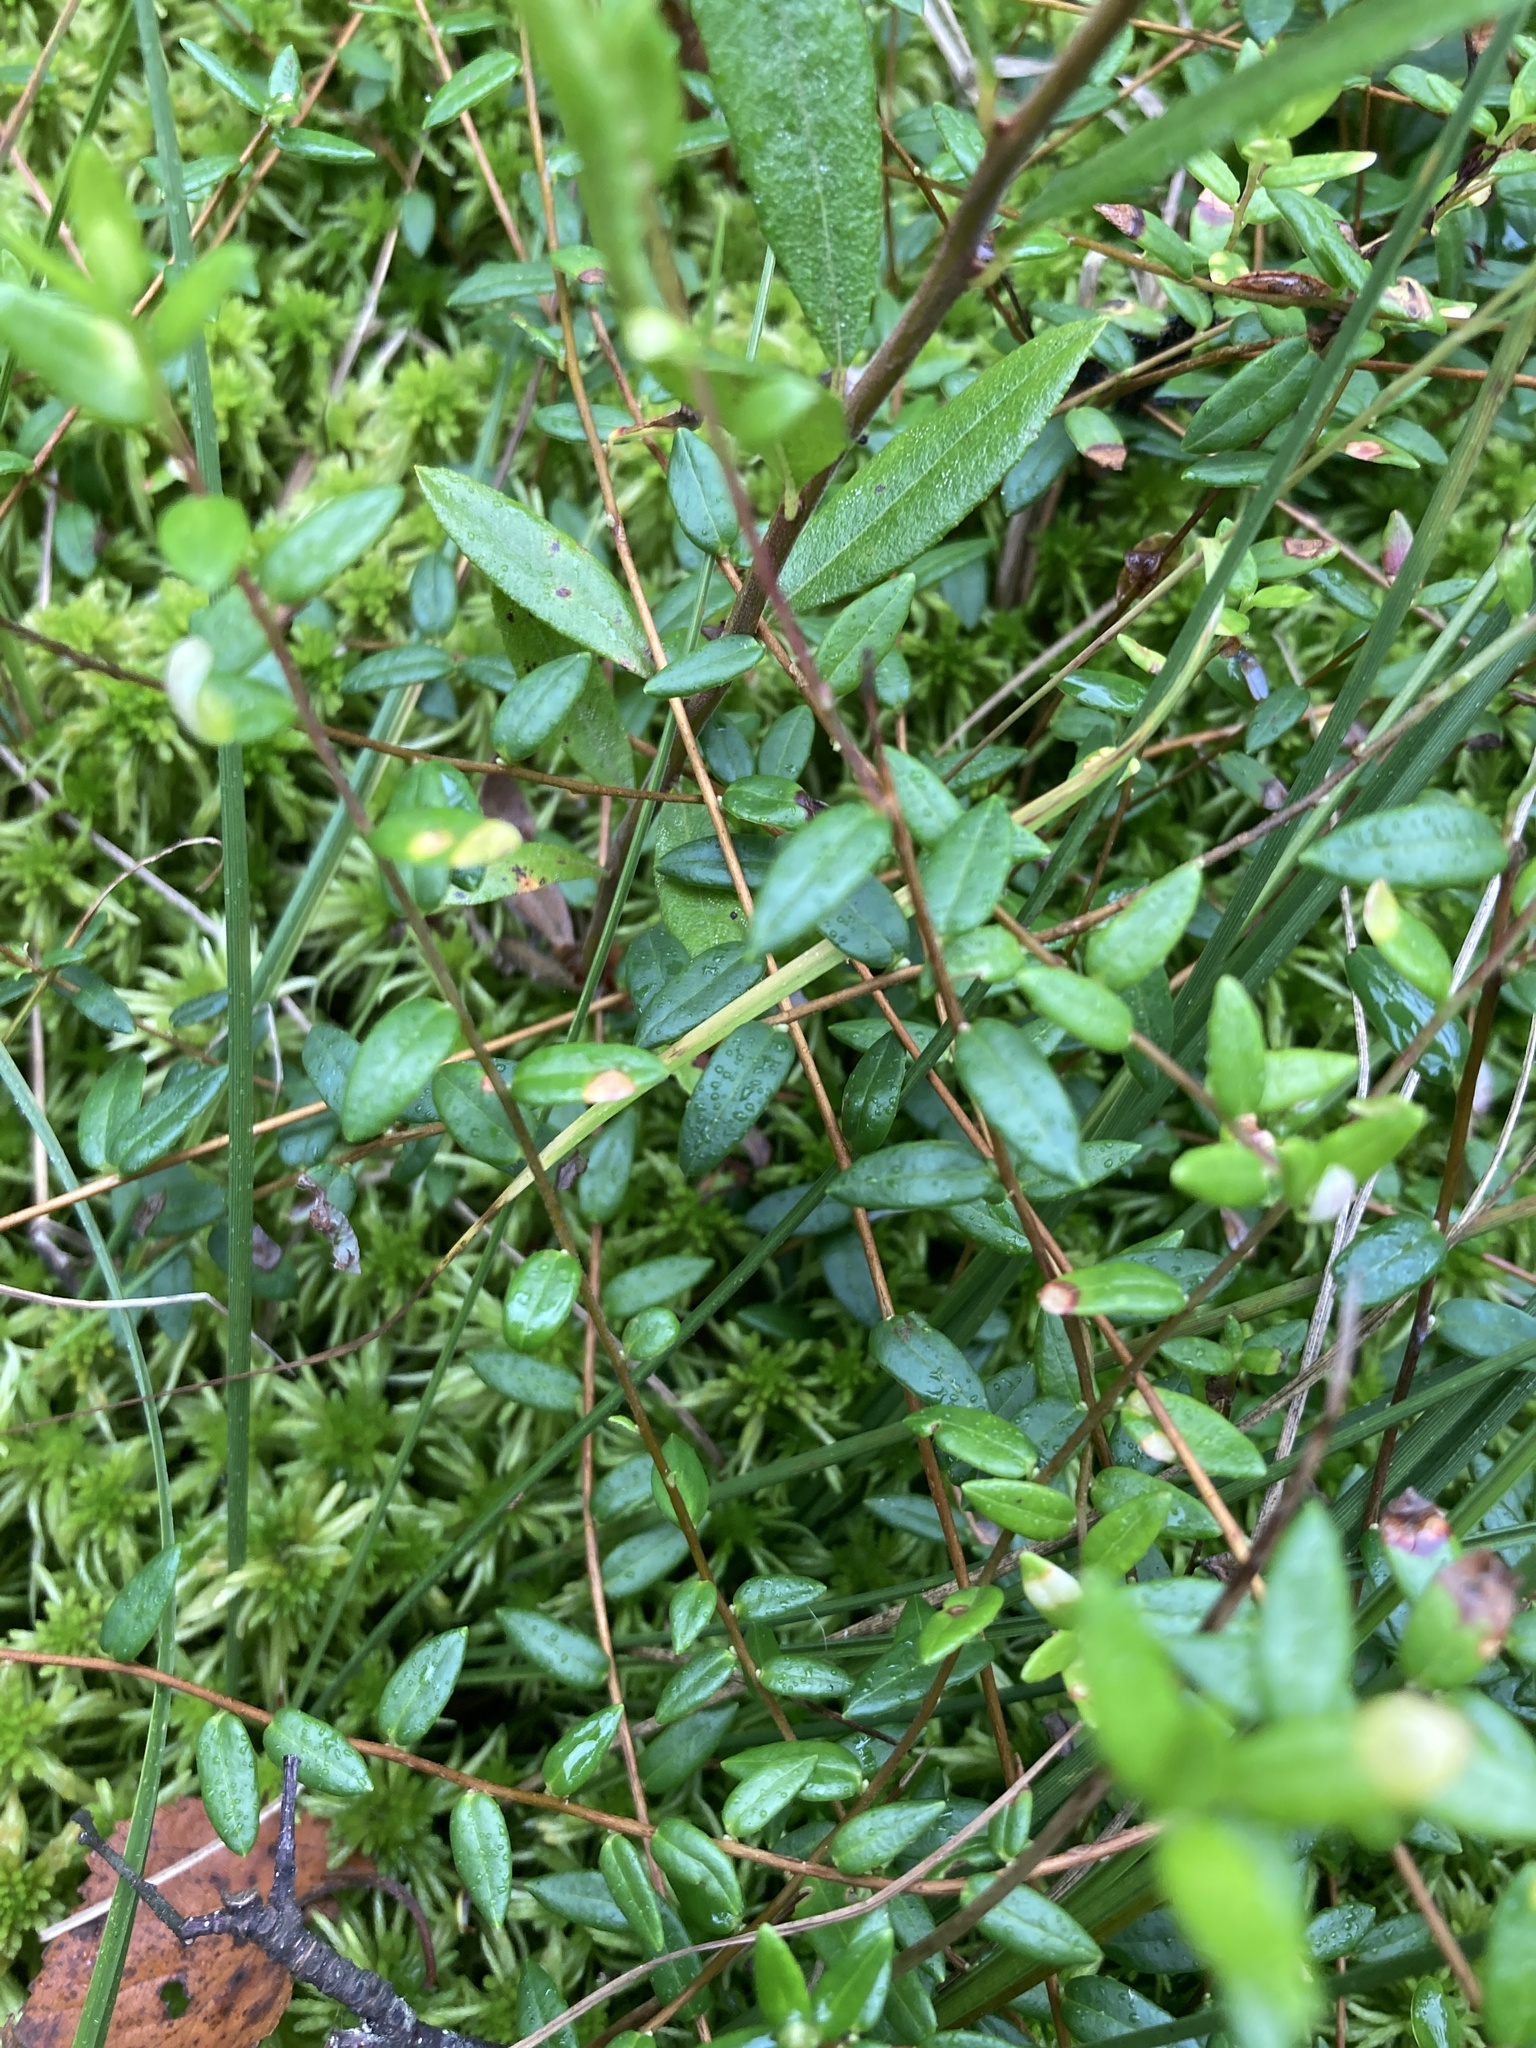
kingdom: Plantae
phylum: Tracheophyta
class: Magnoliopsida
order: Ericales
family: Ericaceae
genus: Vaccinium
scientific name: Vaccinium oxycoccos
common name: Cranberry
